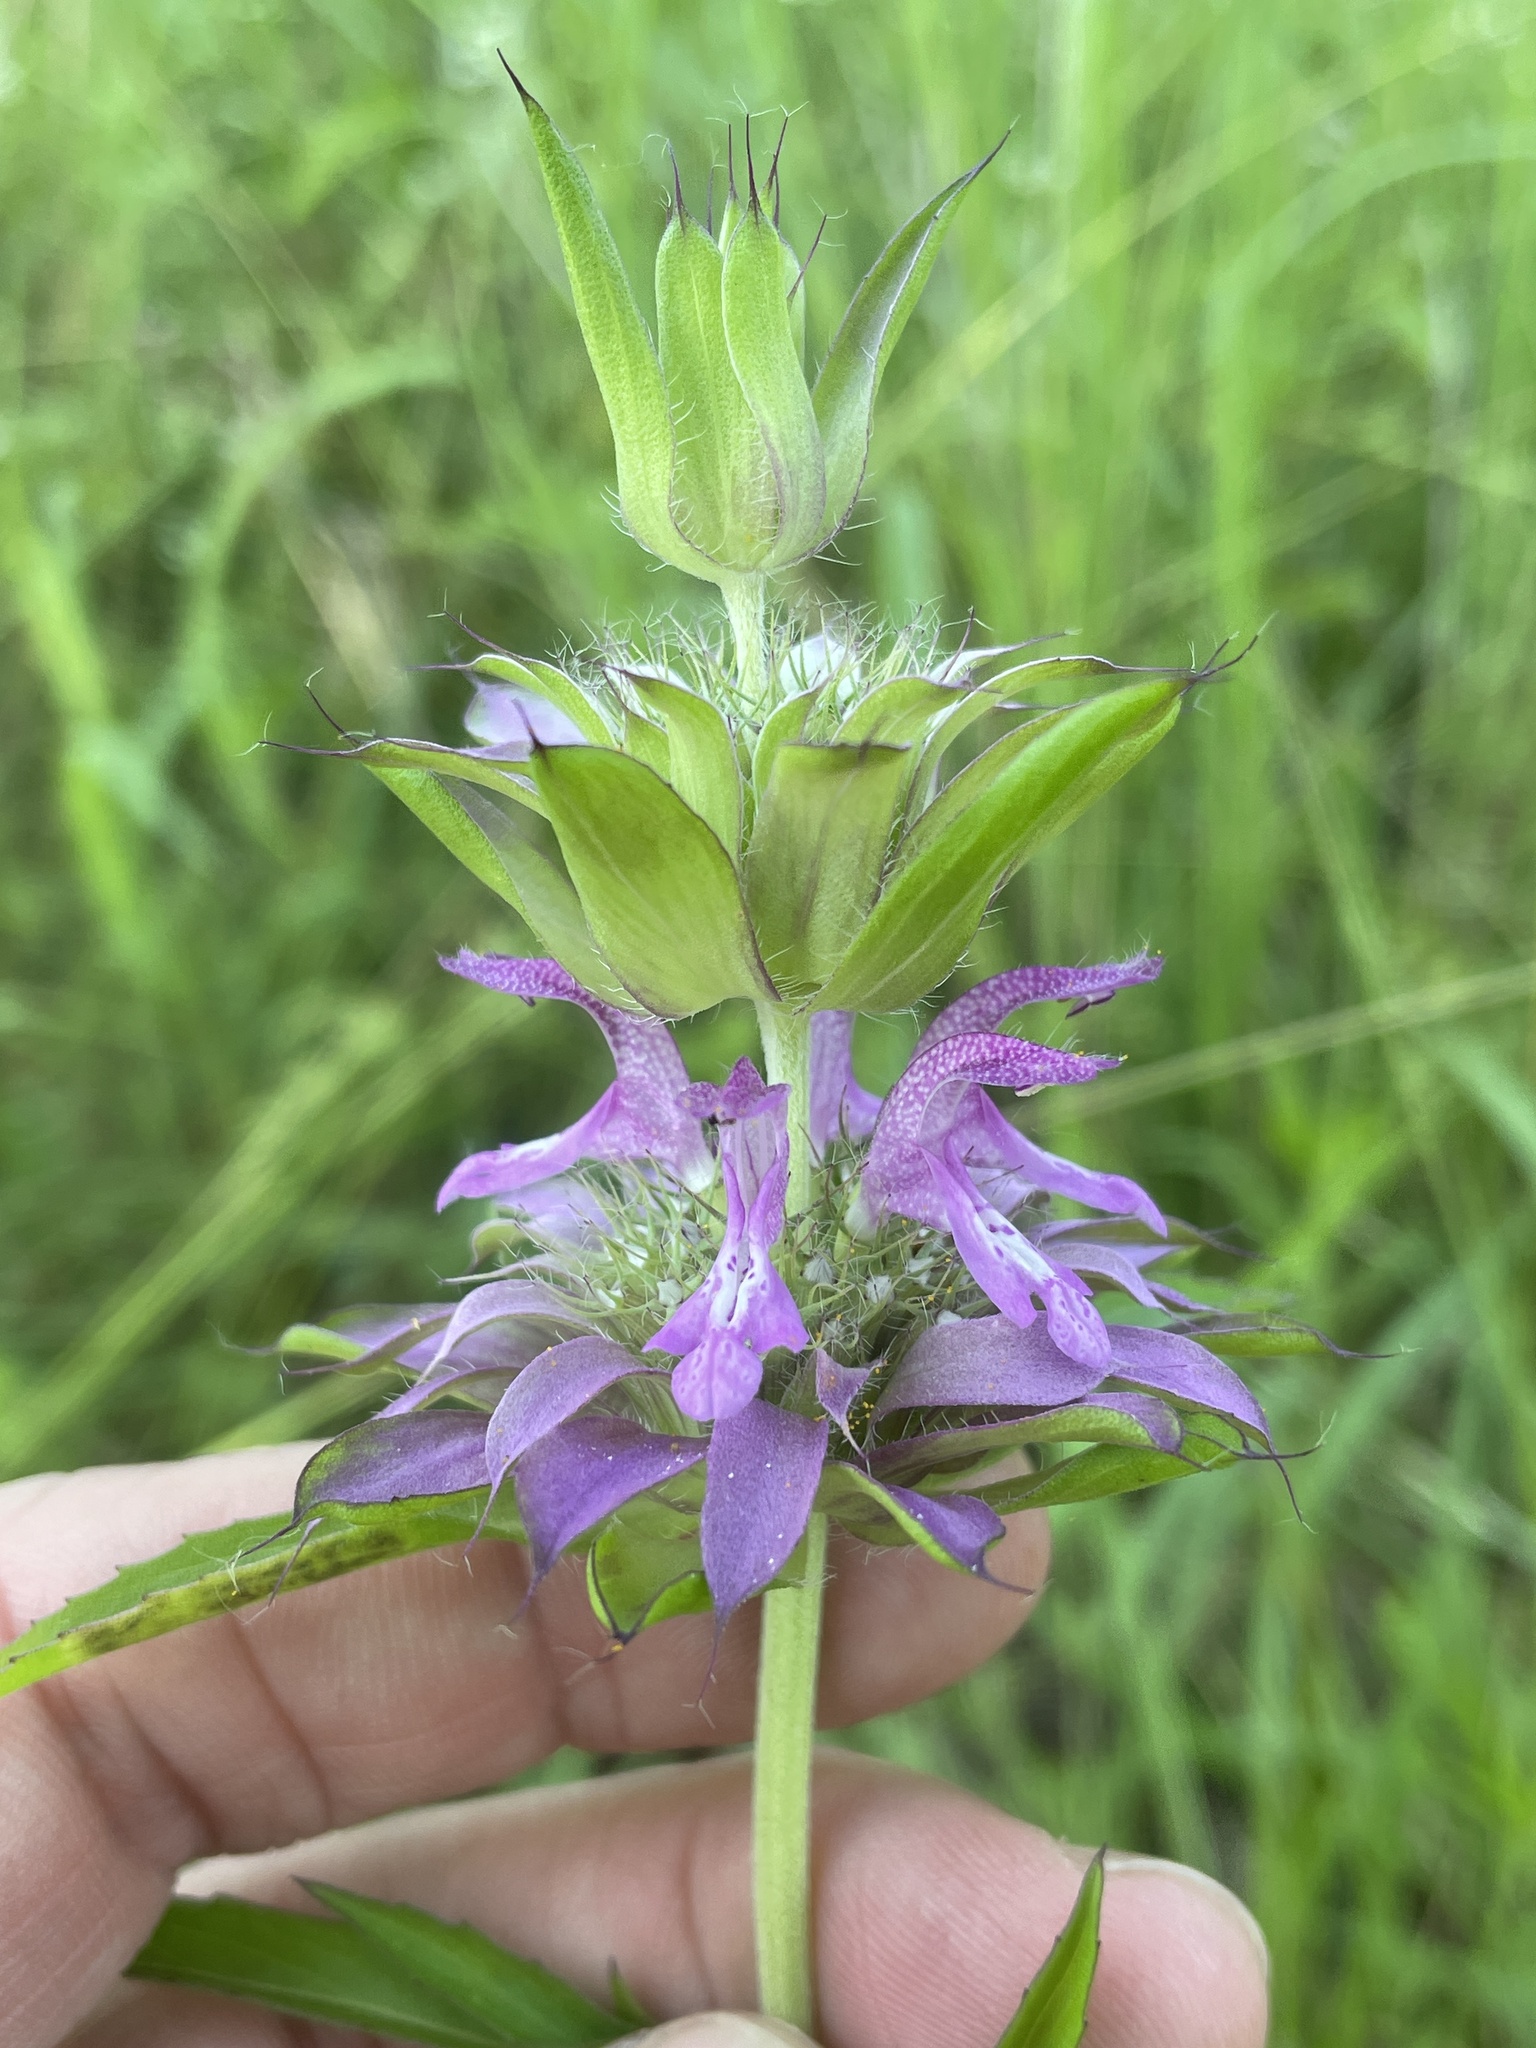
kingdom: Plantae
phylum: Tracheophyta
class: Magnoliopsida
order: Lamiales
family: Lamiaceae
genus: Monarda
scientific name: Monarda citriodora
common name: Lemon beebalm
